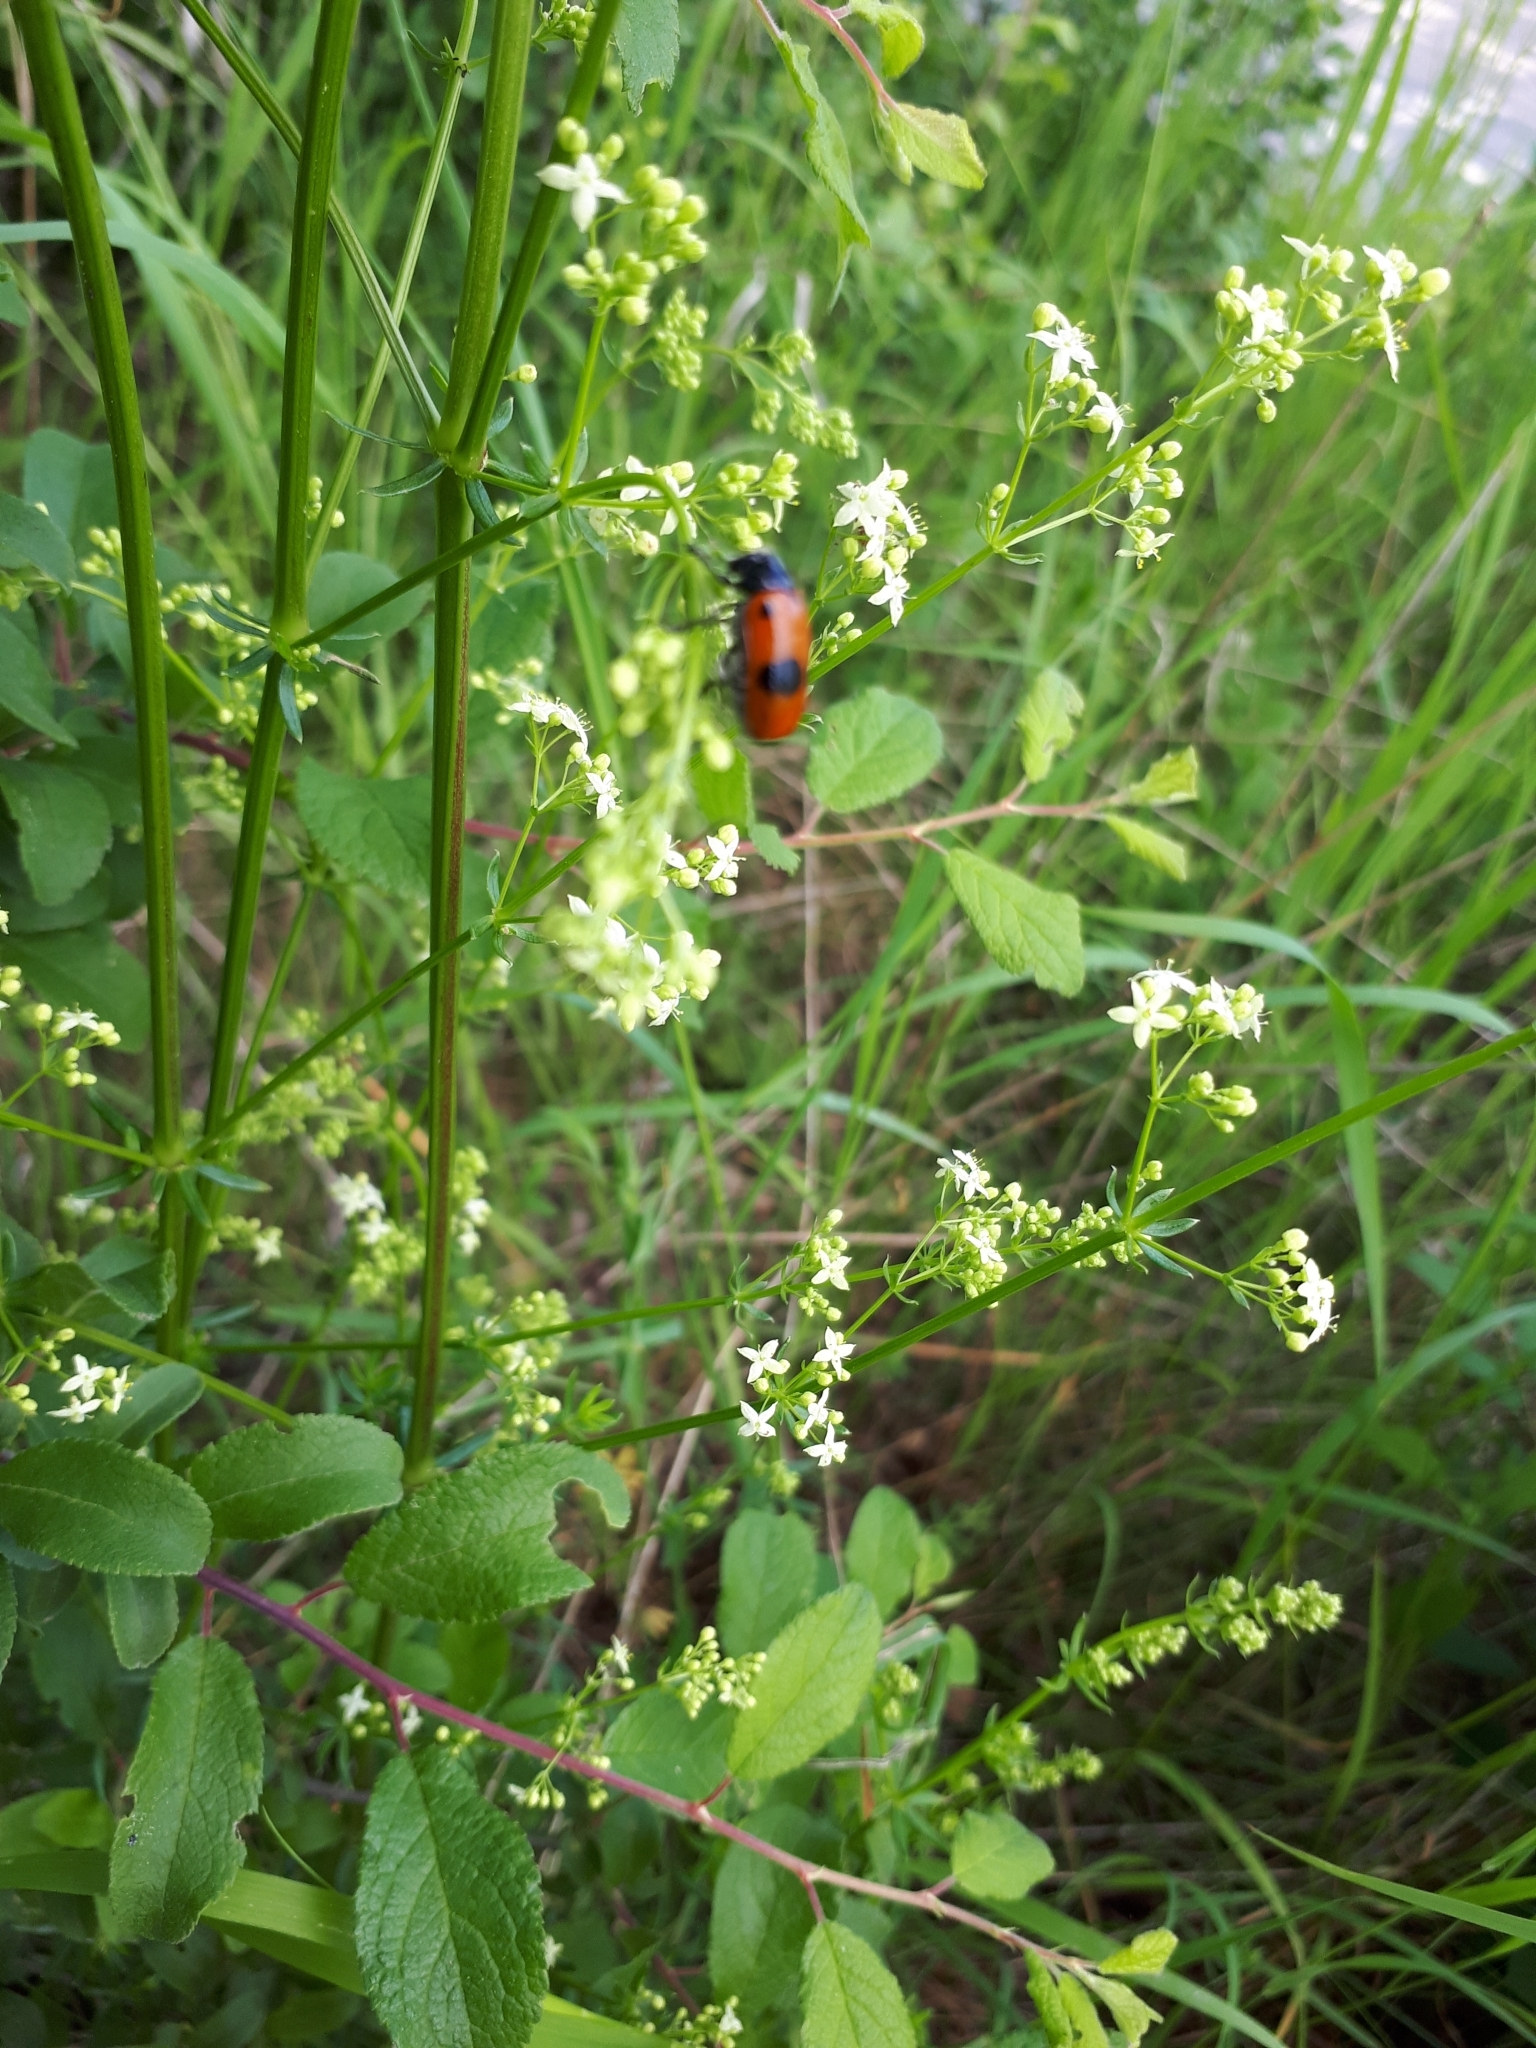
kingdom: Animalia
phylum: Arthropoda
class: Insecta
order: Coleoptera
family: Chrysomelidae
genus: Clytra
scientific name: Clytra laeviuscula
